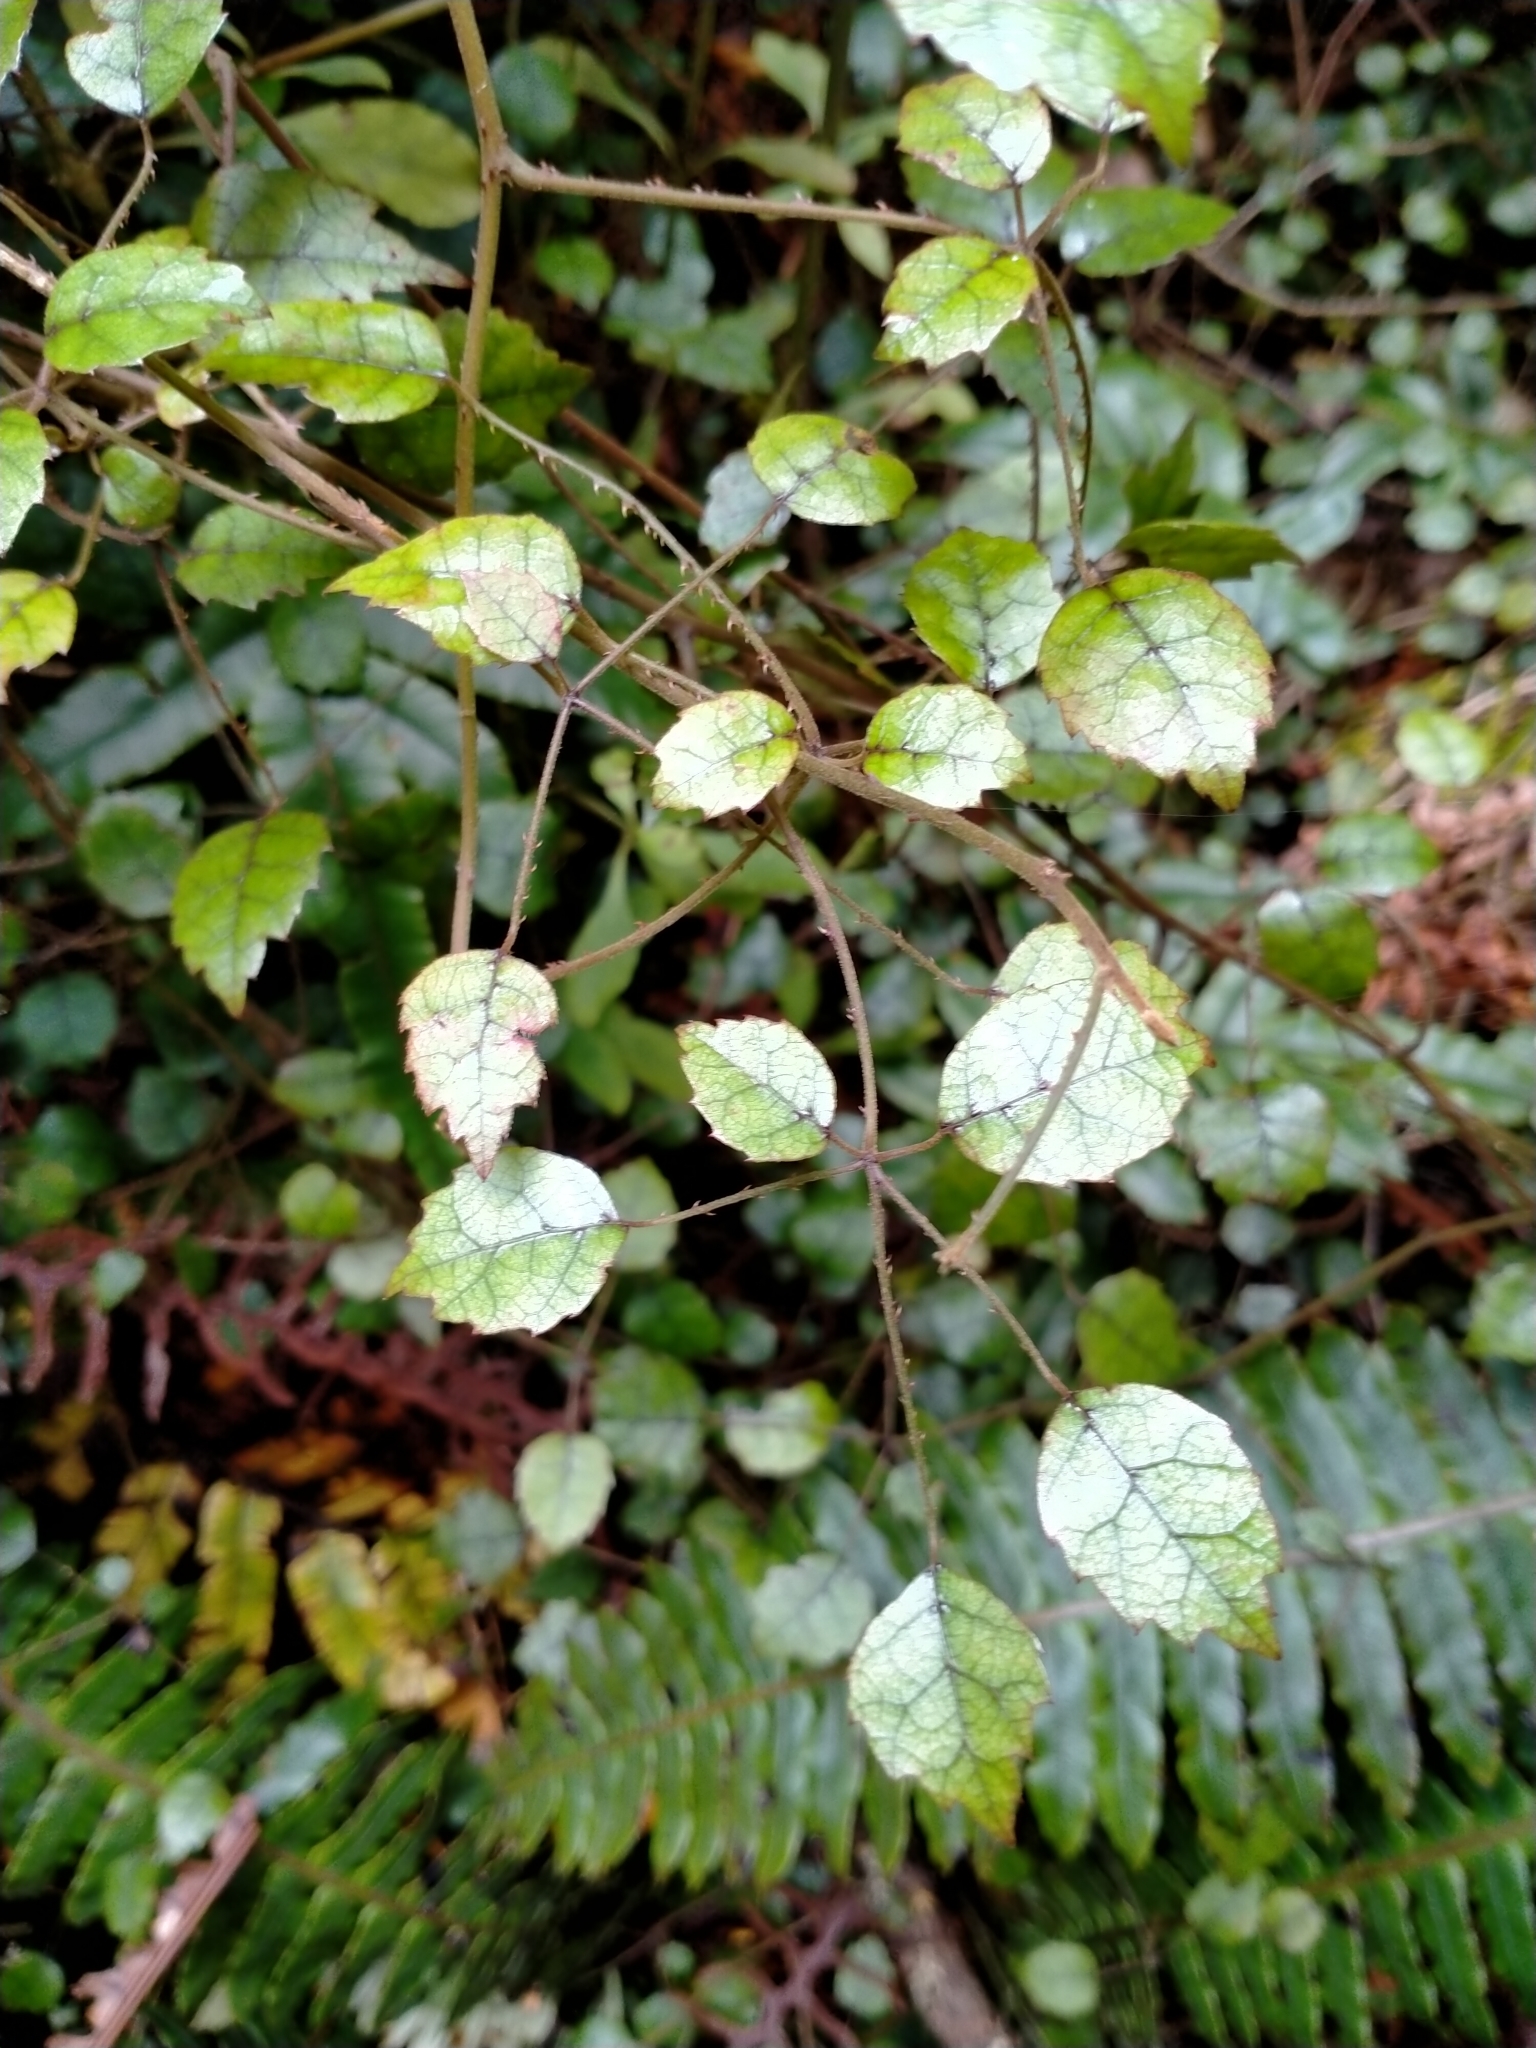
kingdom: Plantae
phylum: Tracheophyta
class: Magnoliopsida
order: Rosales
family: Rosaceae
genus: Rubus
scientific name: Rubus australis
